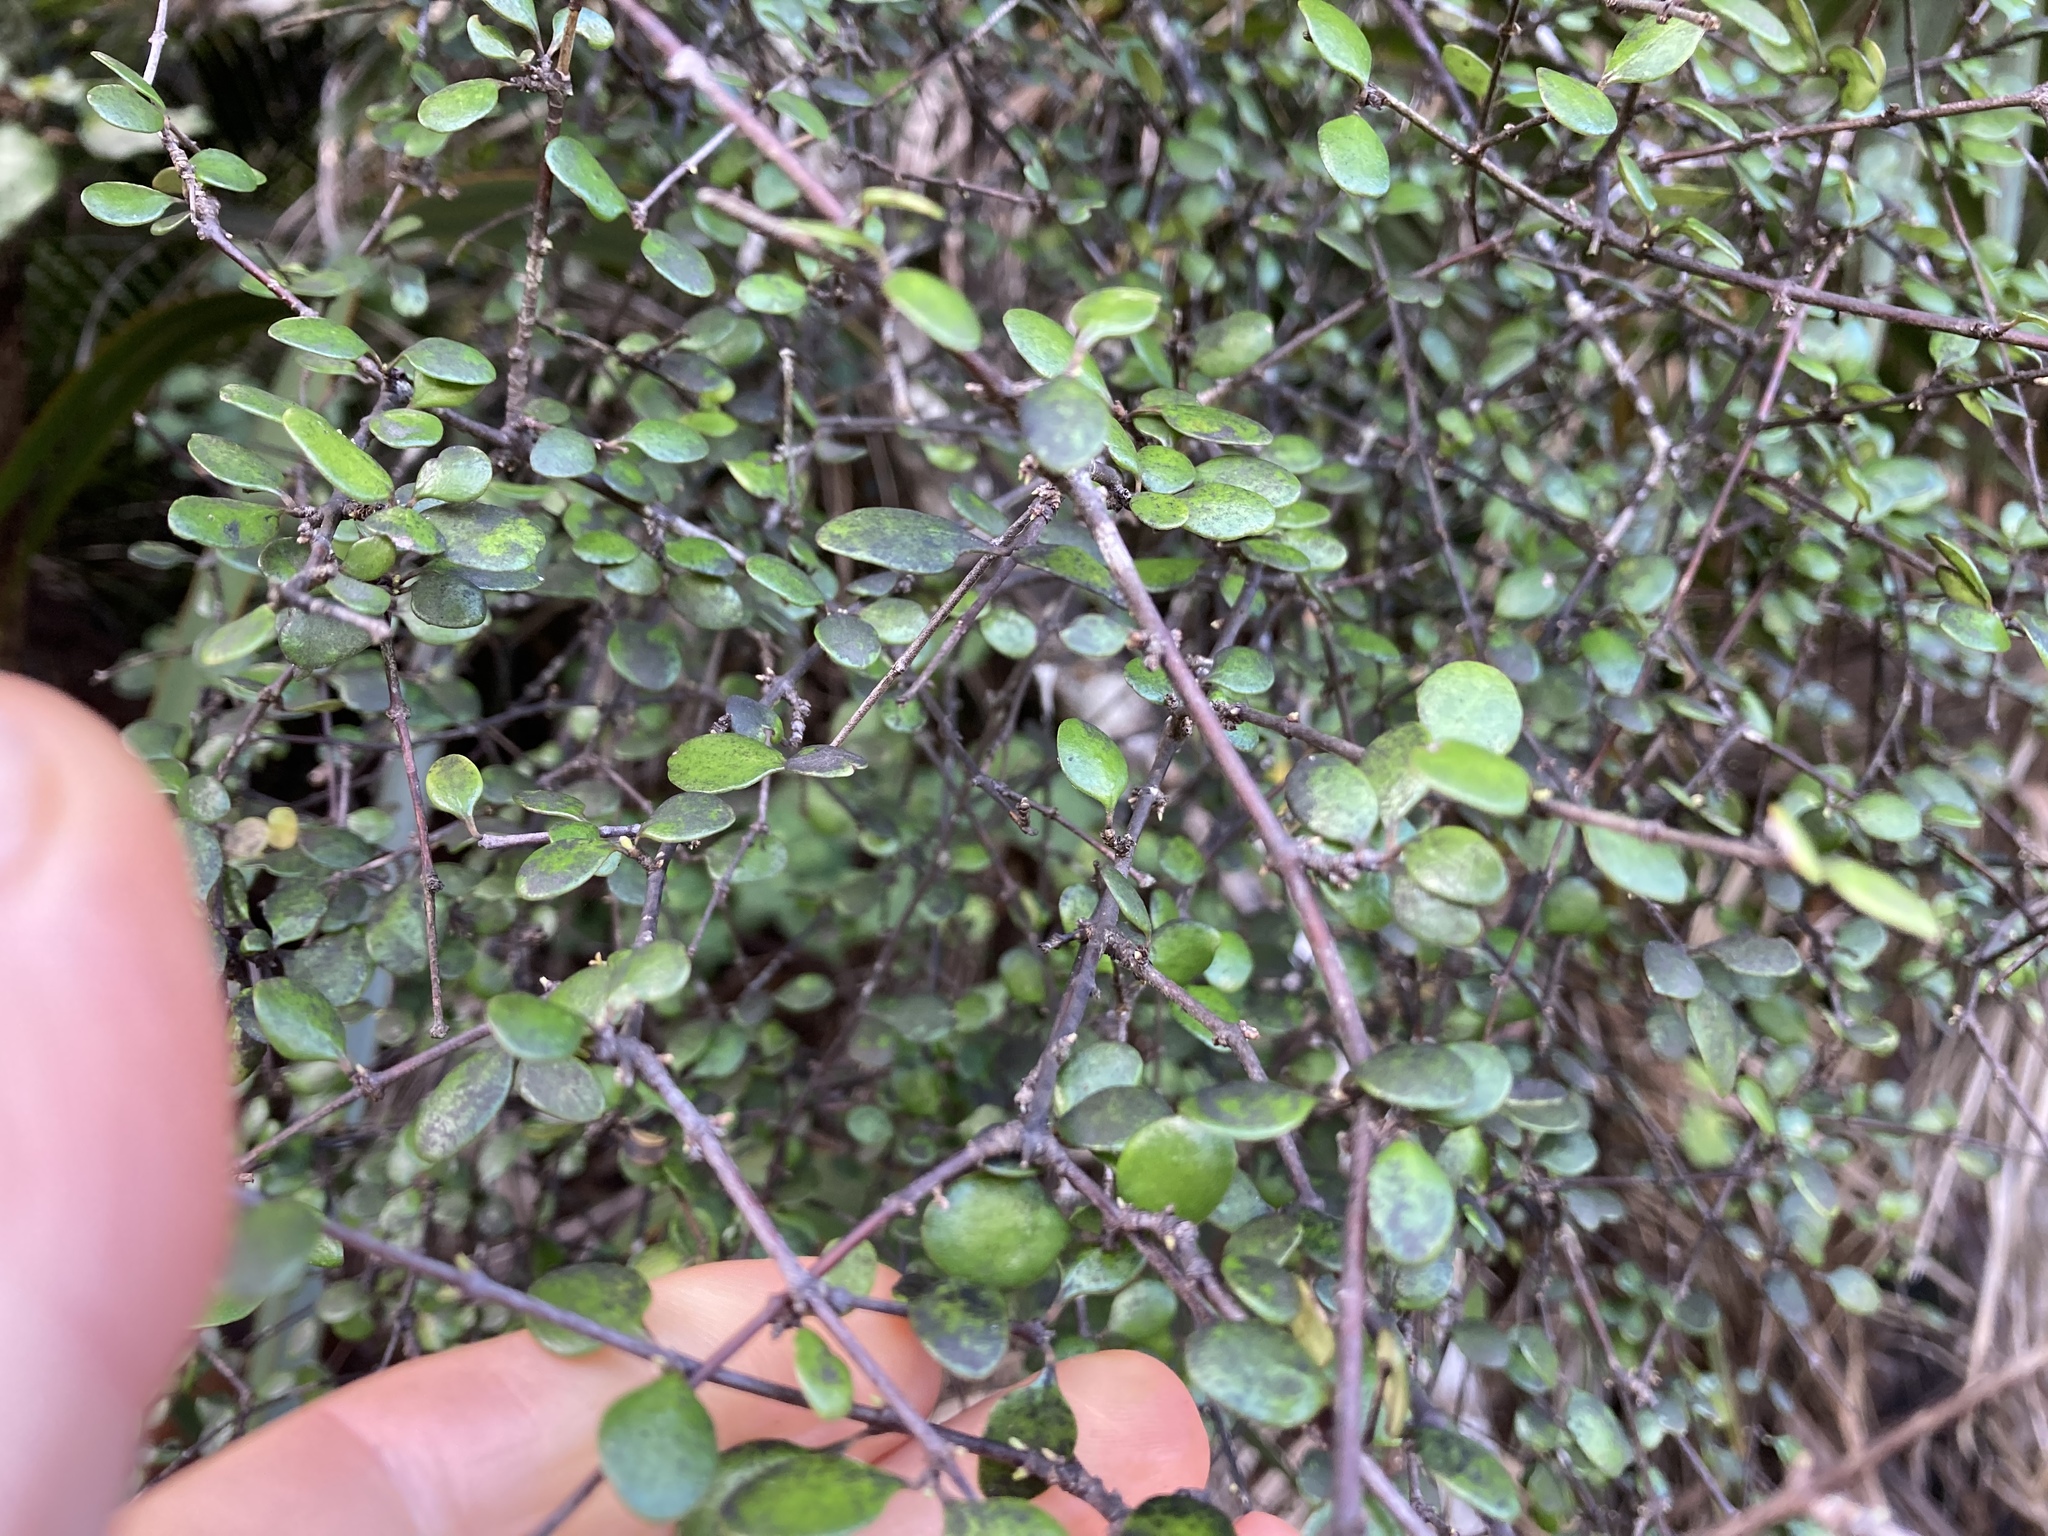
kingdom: Plantae
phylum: Tracheophyta
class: Magnoliopsida
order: Gentianales
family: Rubiaceae
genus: Coprosma
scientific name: Coprosma crassifolia
